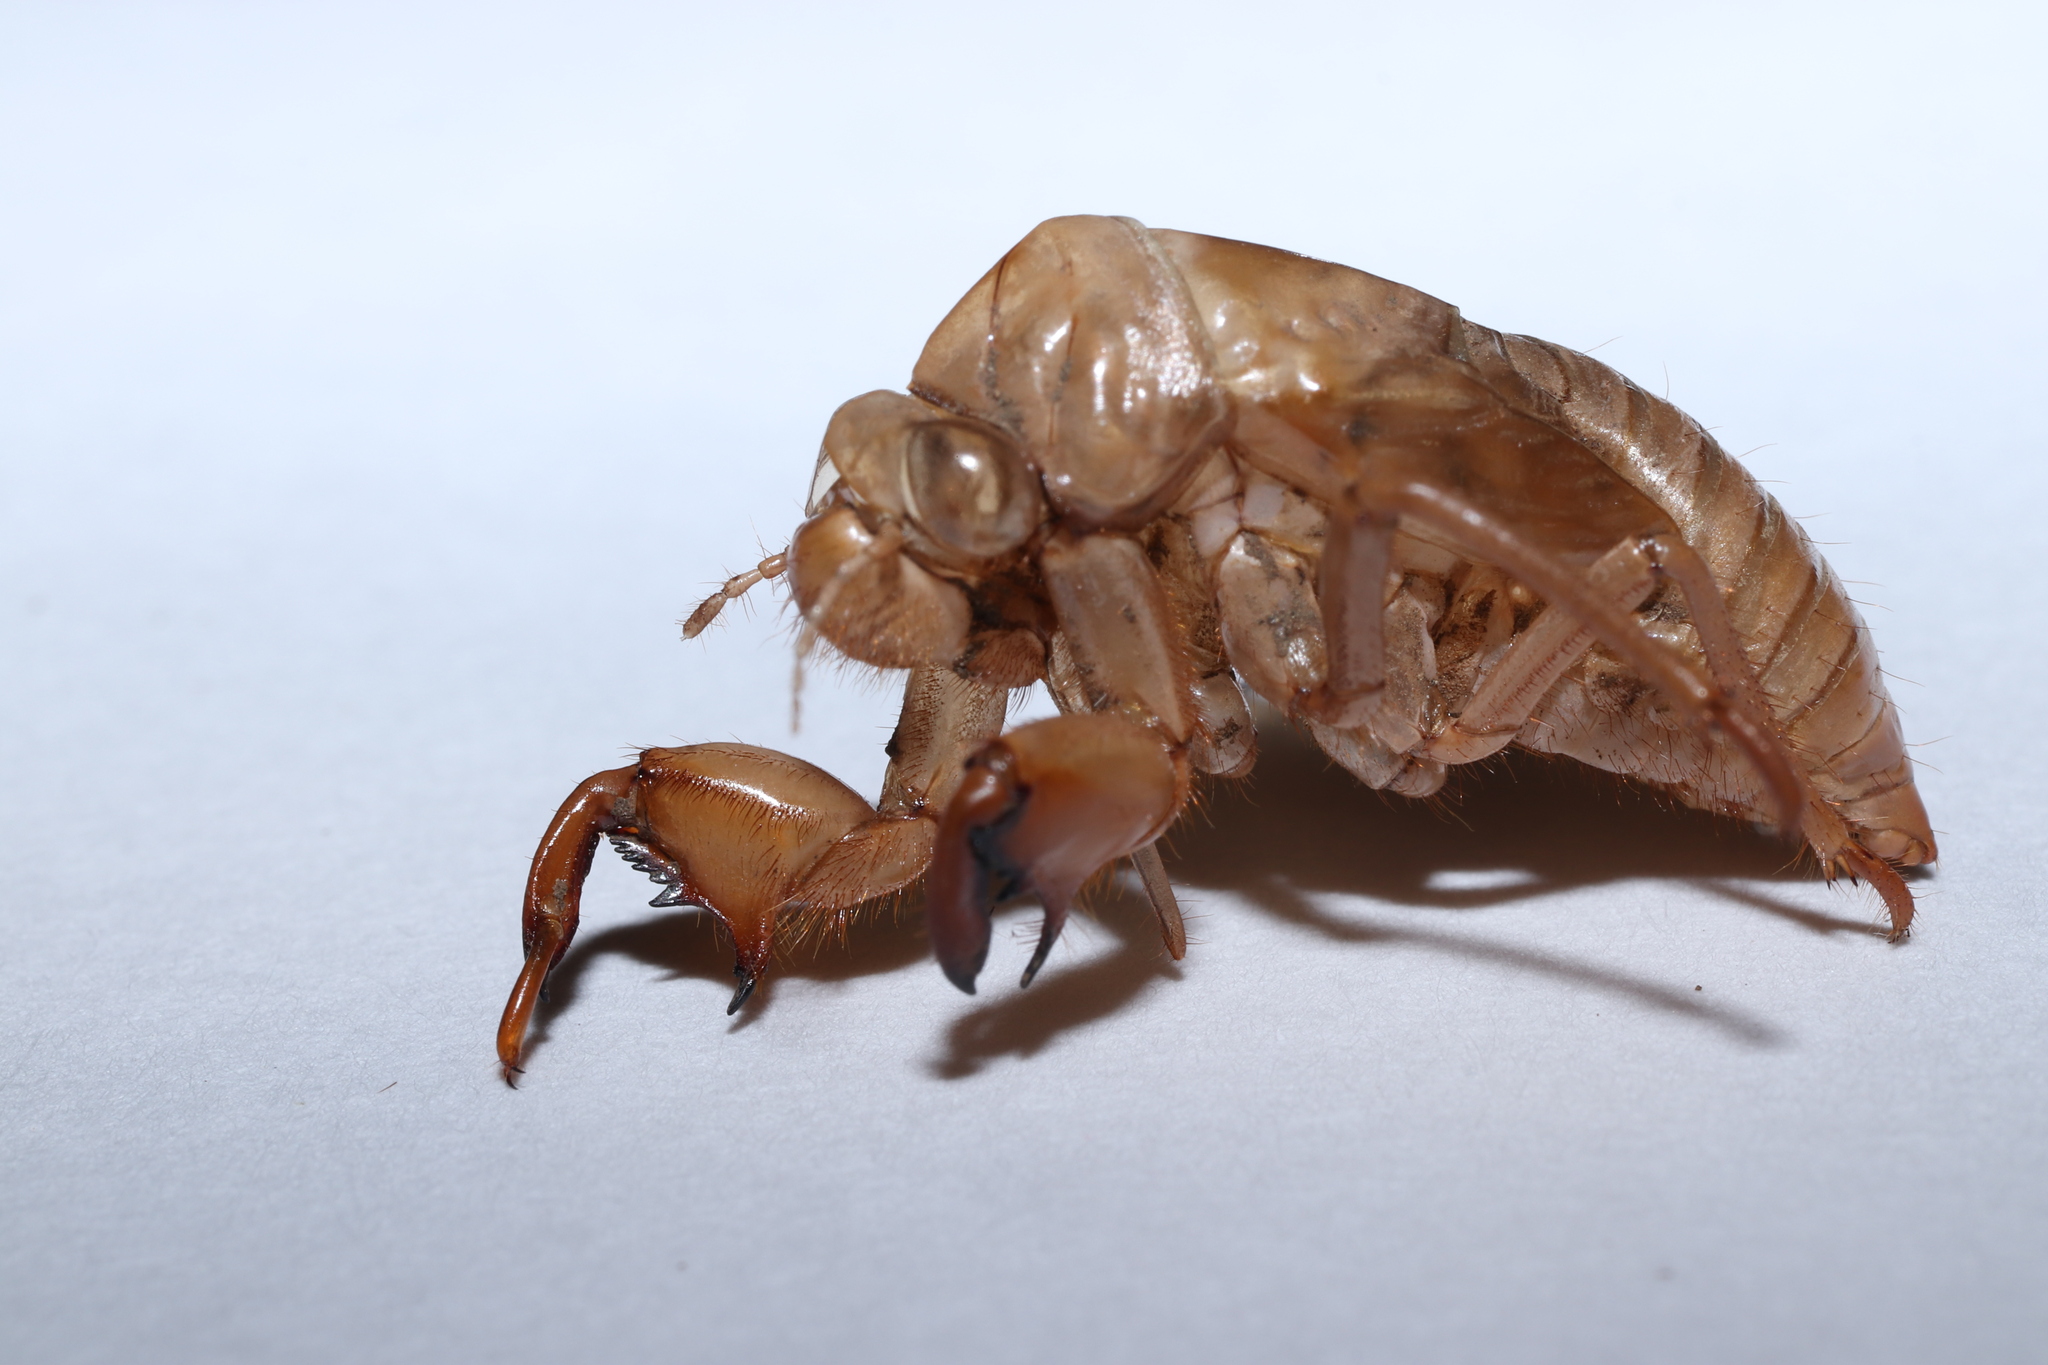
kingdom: Animalia
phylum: Arthropoda
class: Insecta
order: Hemiptera
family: Cicadidae
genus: Tanna
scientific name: Tanna japonensis
